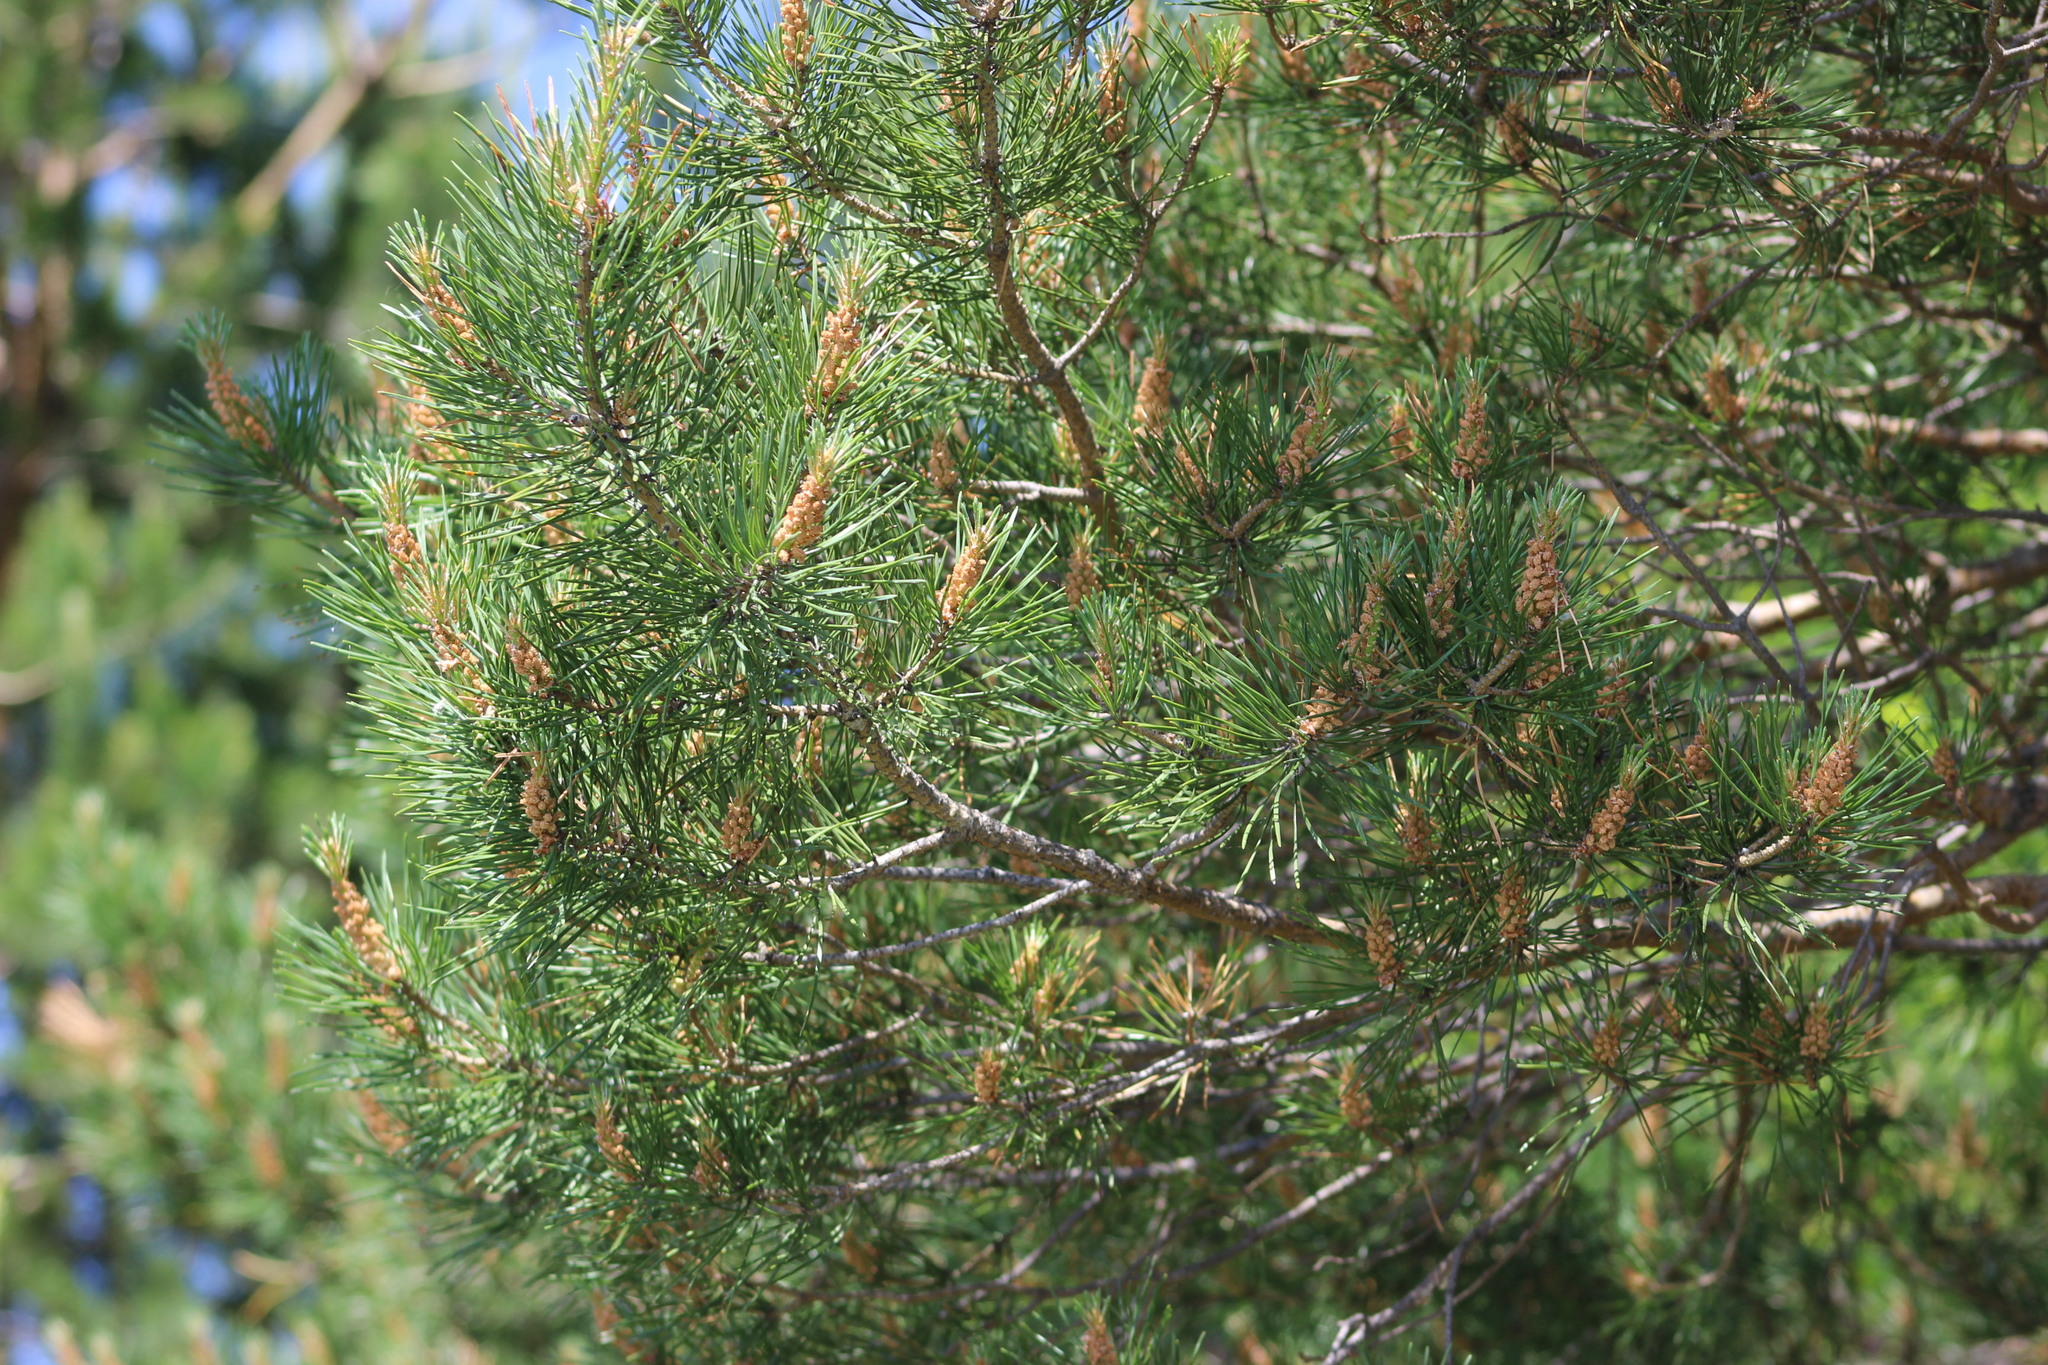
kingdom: Plantae
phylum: Tracheophyta
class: Pinopsida
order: Pinales
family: Pinaceae
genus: Pinus
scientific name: Pinus sylvestris
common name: Scots pine
